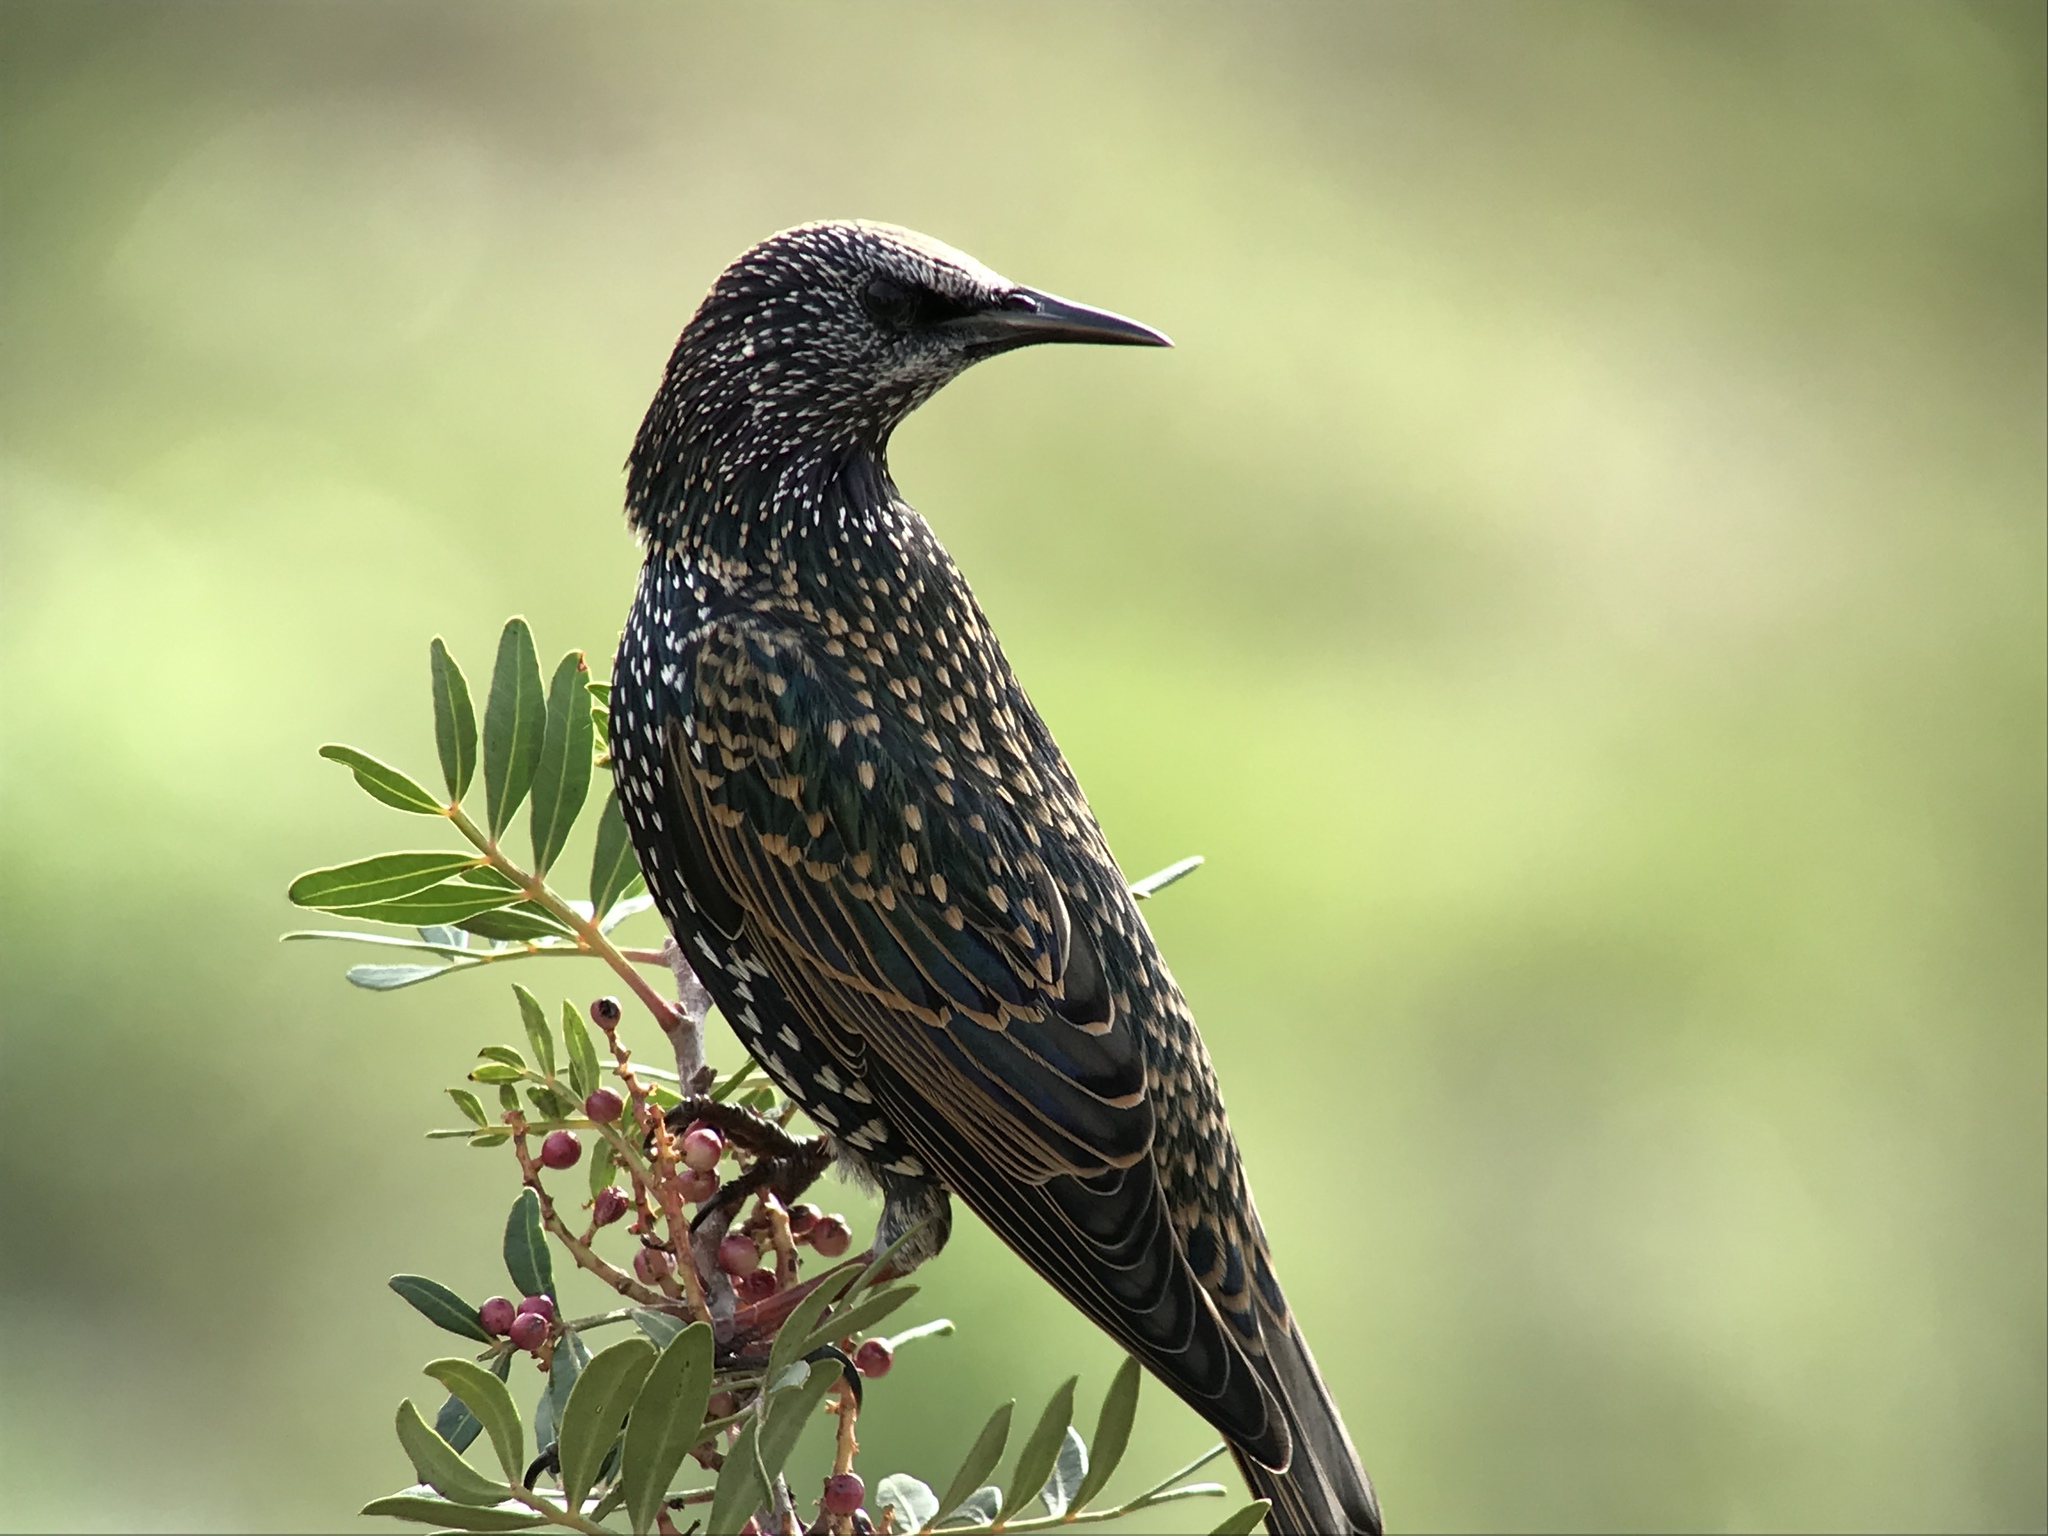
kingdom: Animalia
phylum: Chordata
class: Aves
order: Passeriformes
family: Sturnidae
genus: Sturnus
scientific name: Sturnus vulgaris
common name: Common starling
